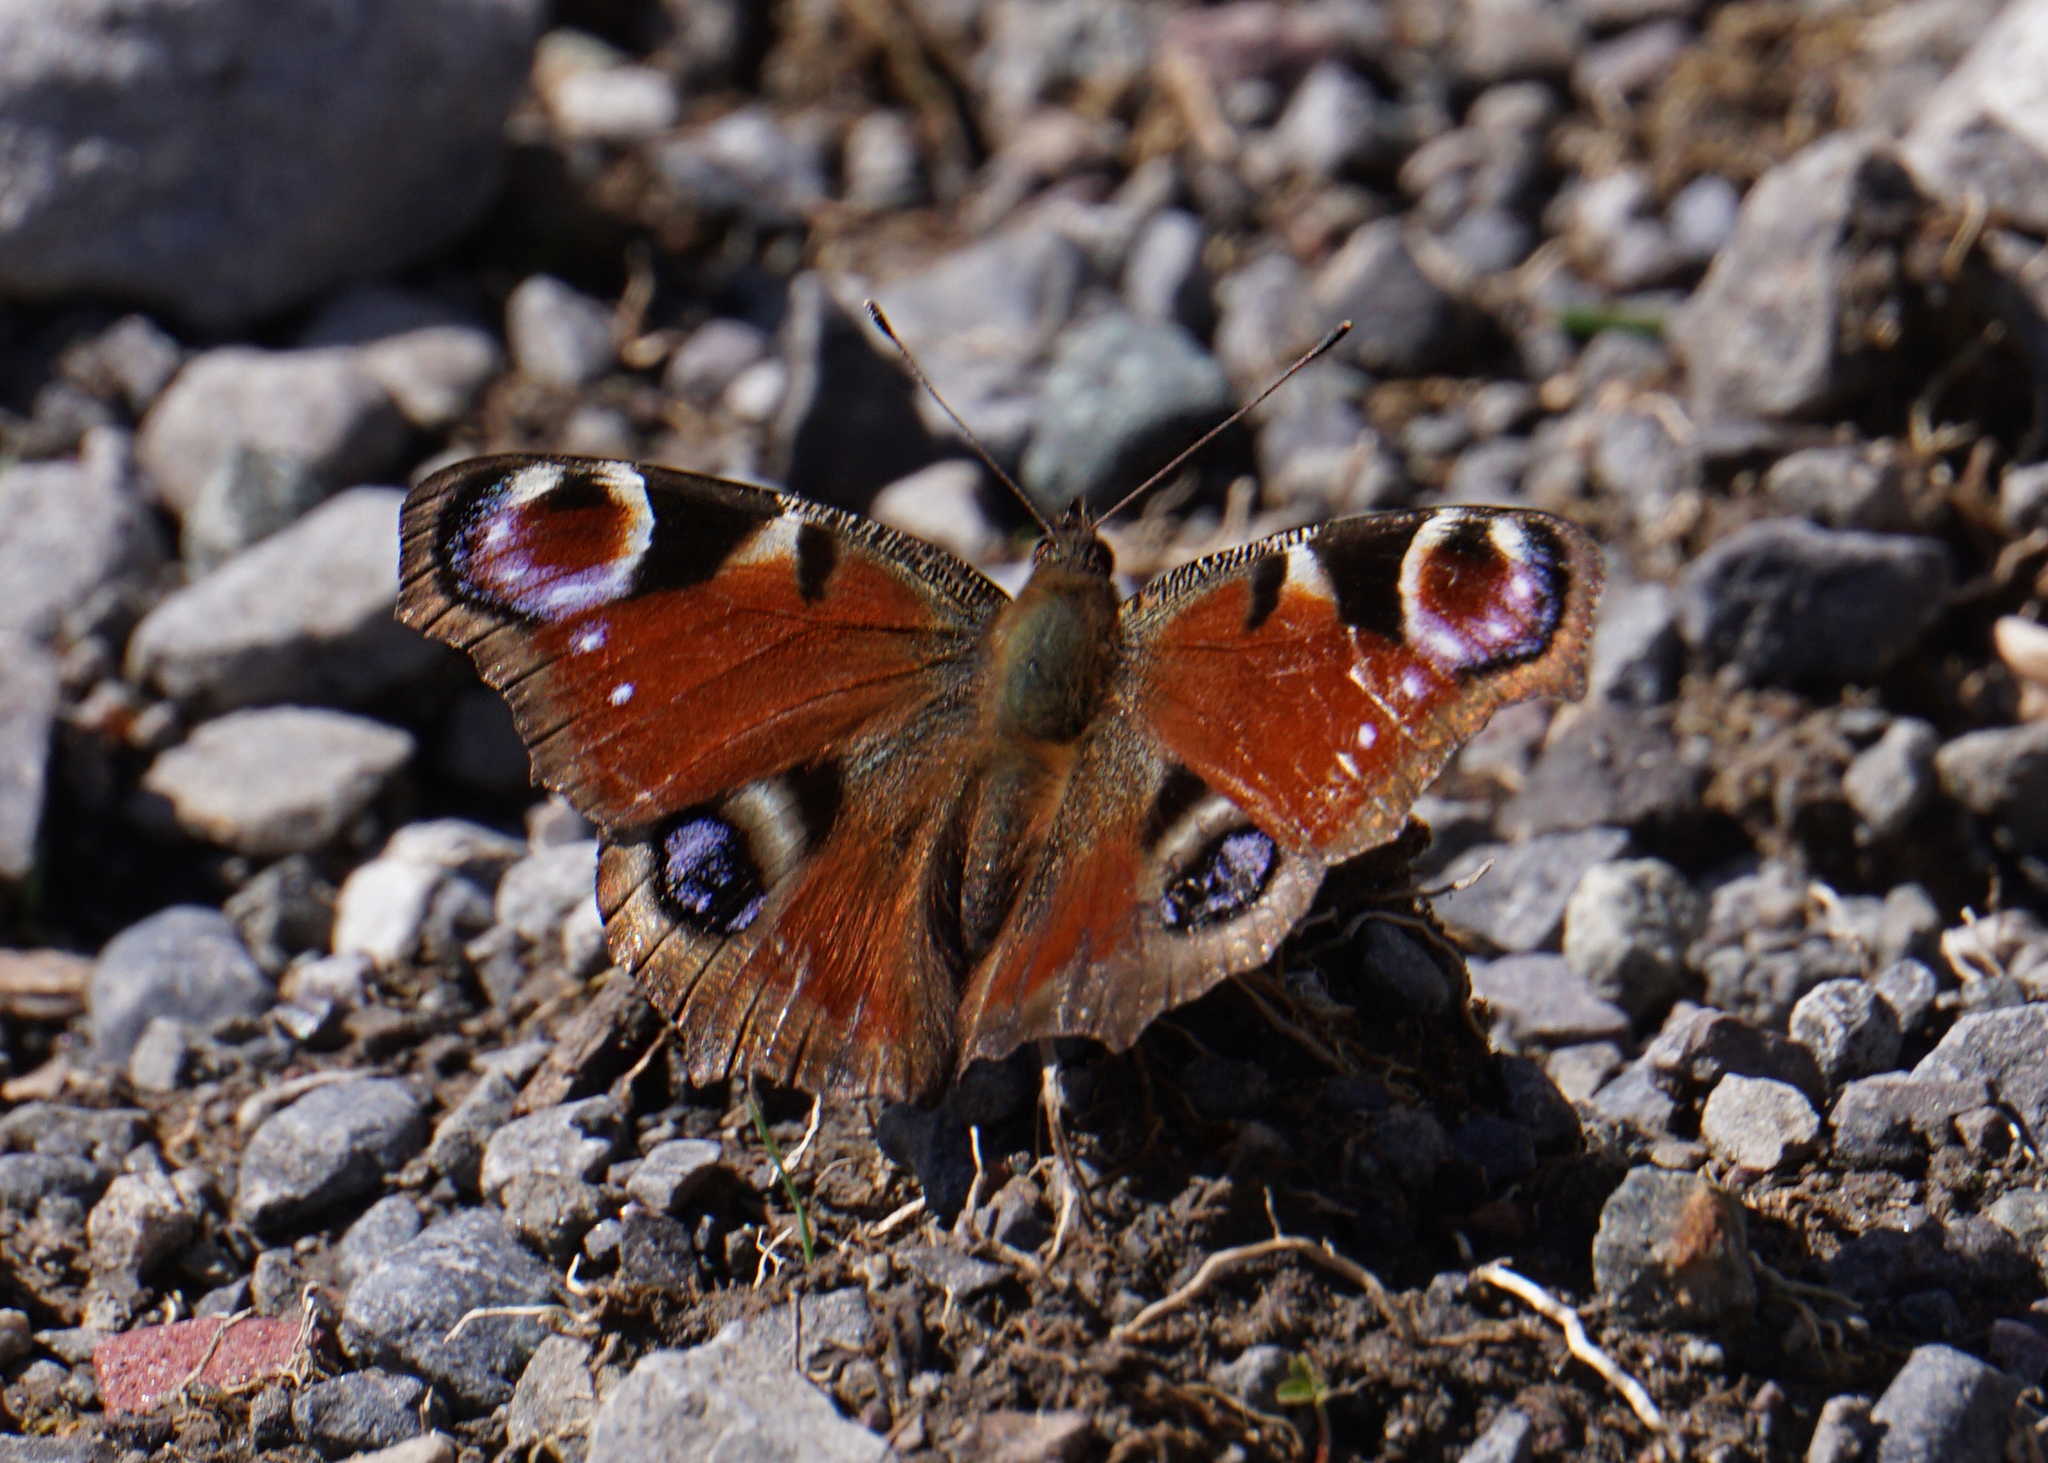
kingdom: Animalia
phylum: Arthropoda
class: Insecta
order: Lepidoptera
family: Nymphalidae
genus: Aglais
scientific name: Aglais io
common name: Peacock
